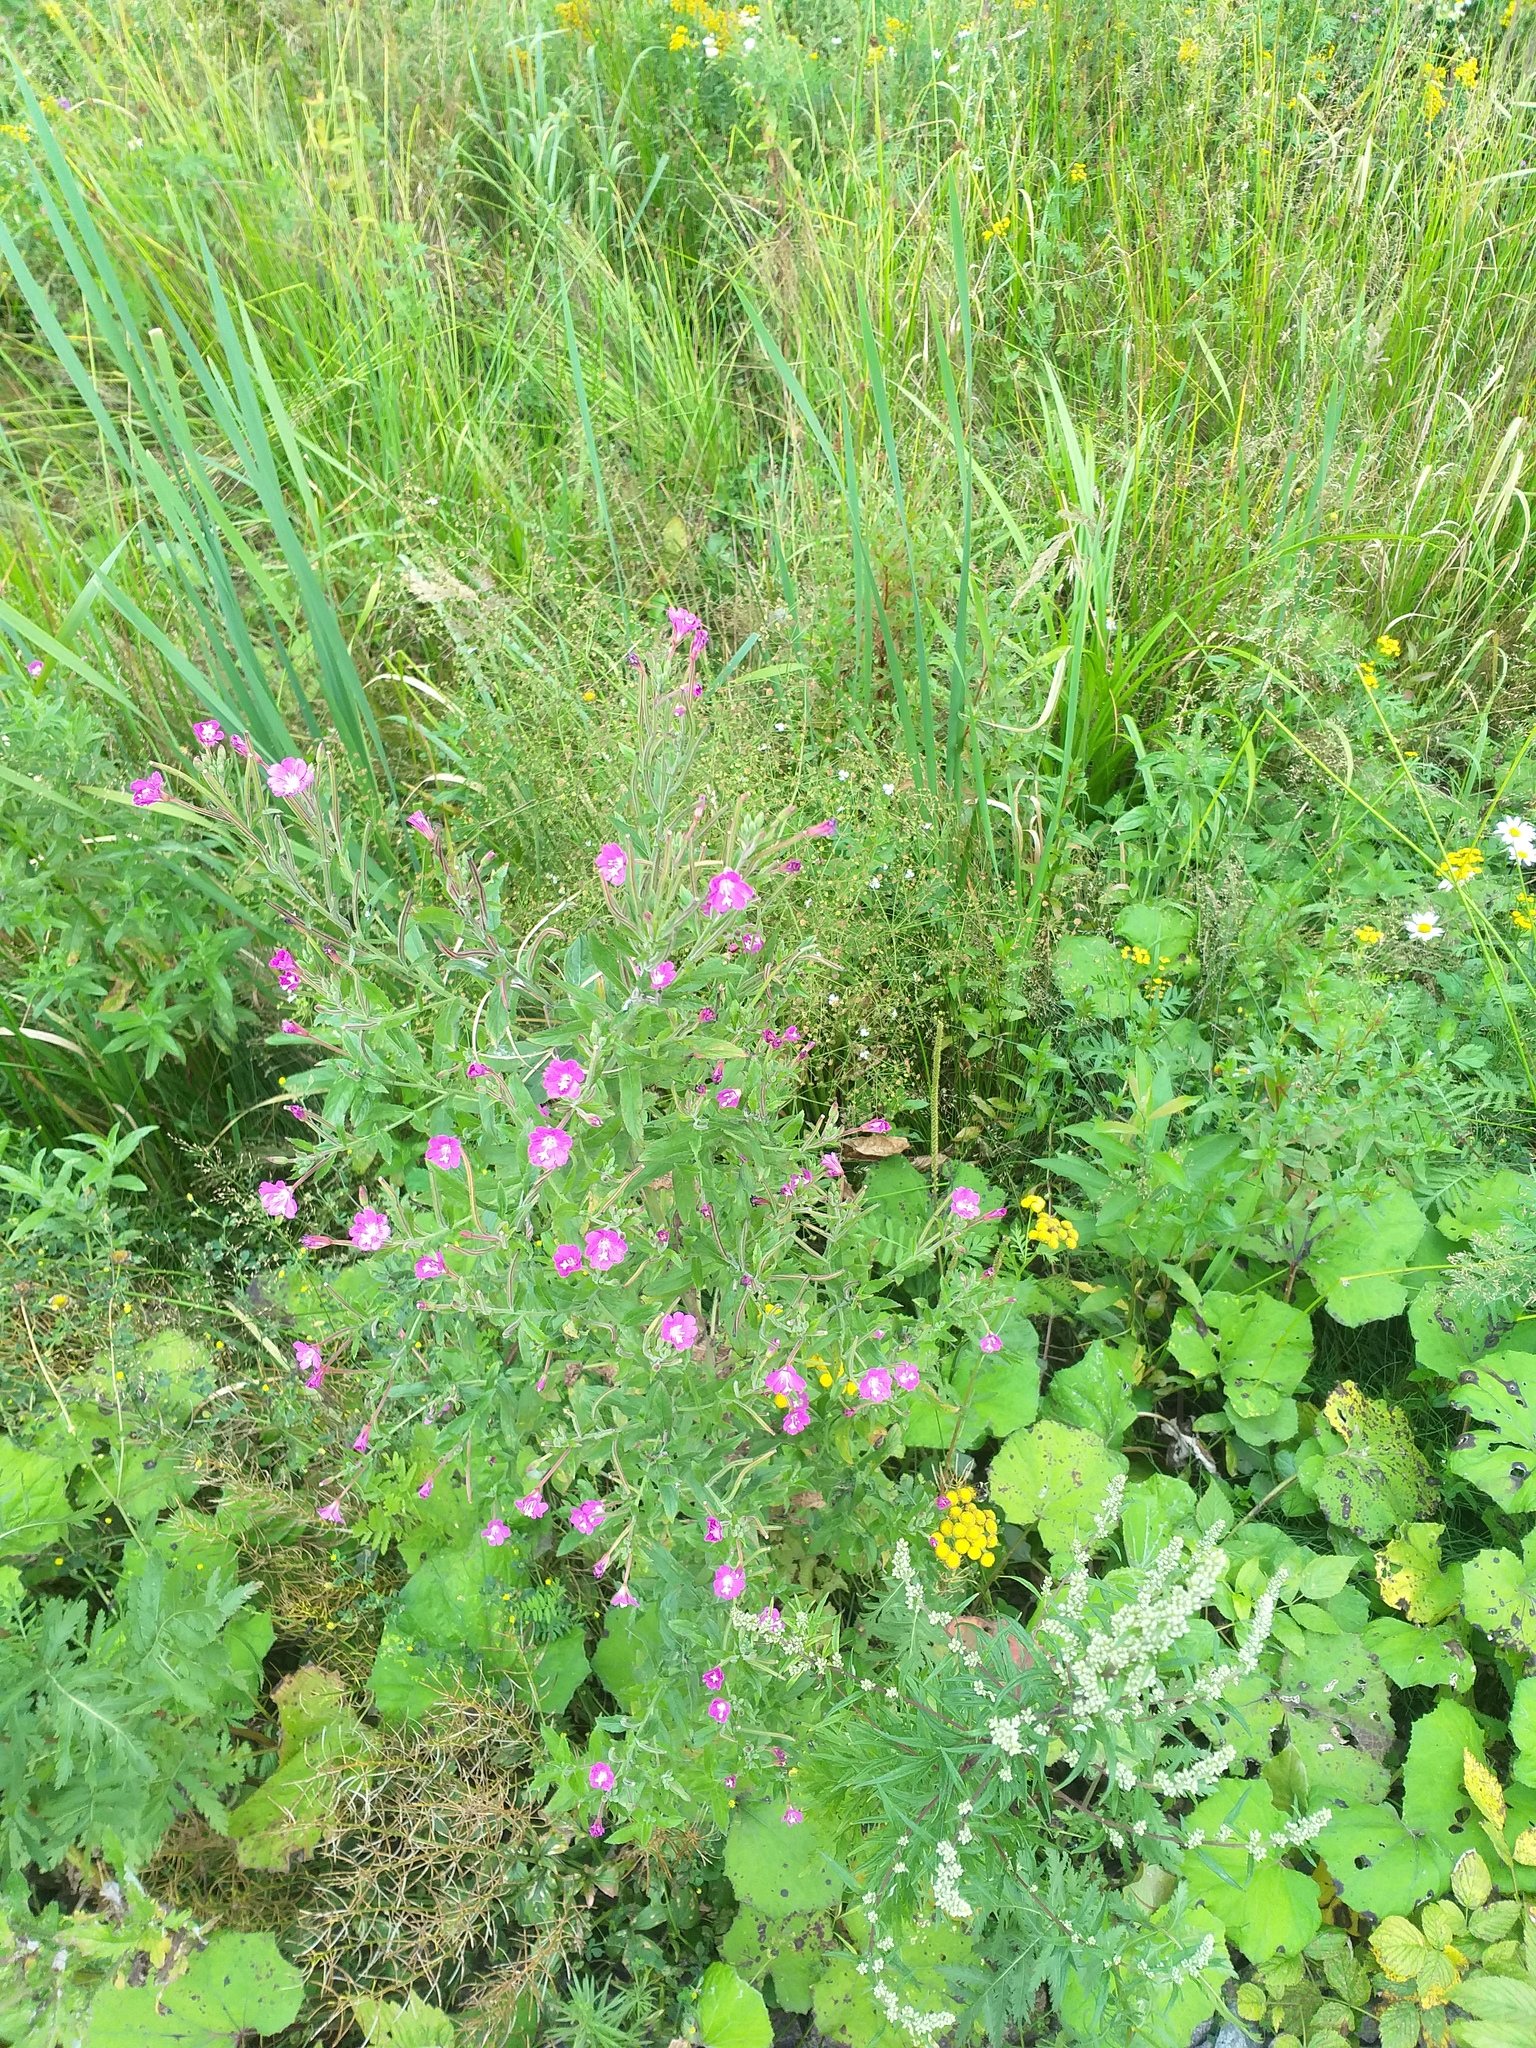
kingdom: Plantae
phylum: Tracheophyta
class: Magnoliopsida
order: Myrtales
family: Onagraceae
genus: Epilobium
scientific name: Epilobium hirsutum
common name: Great willowherb
